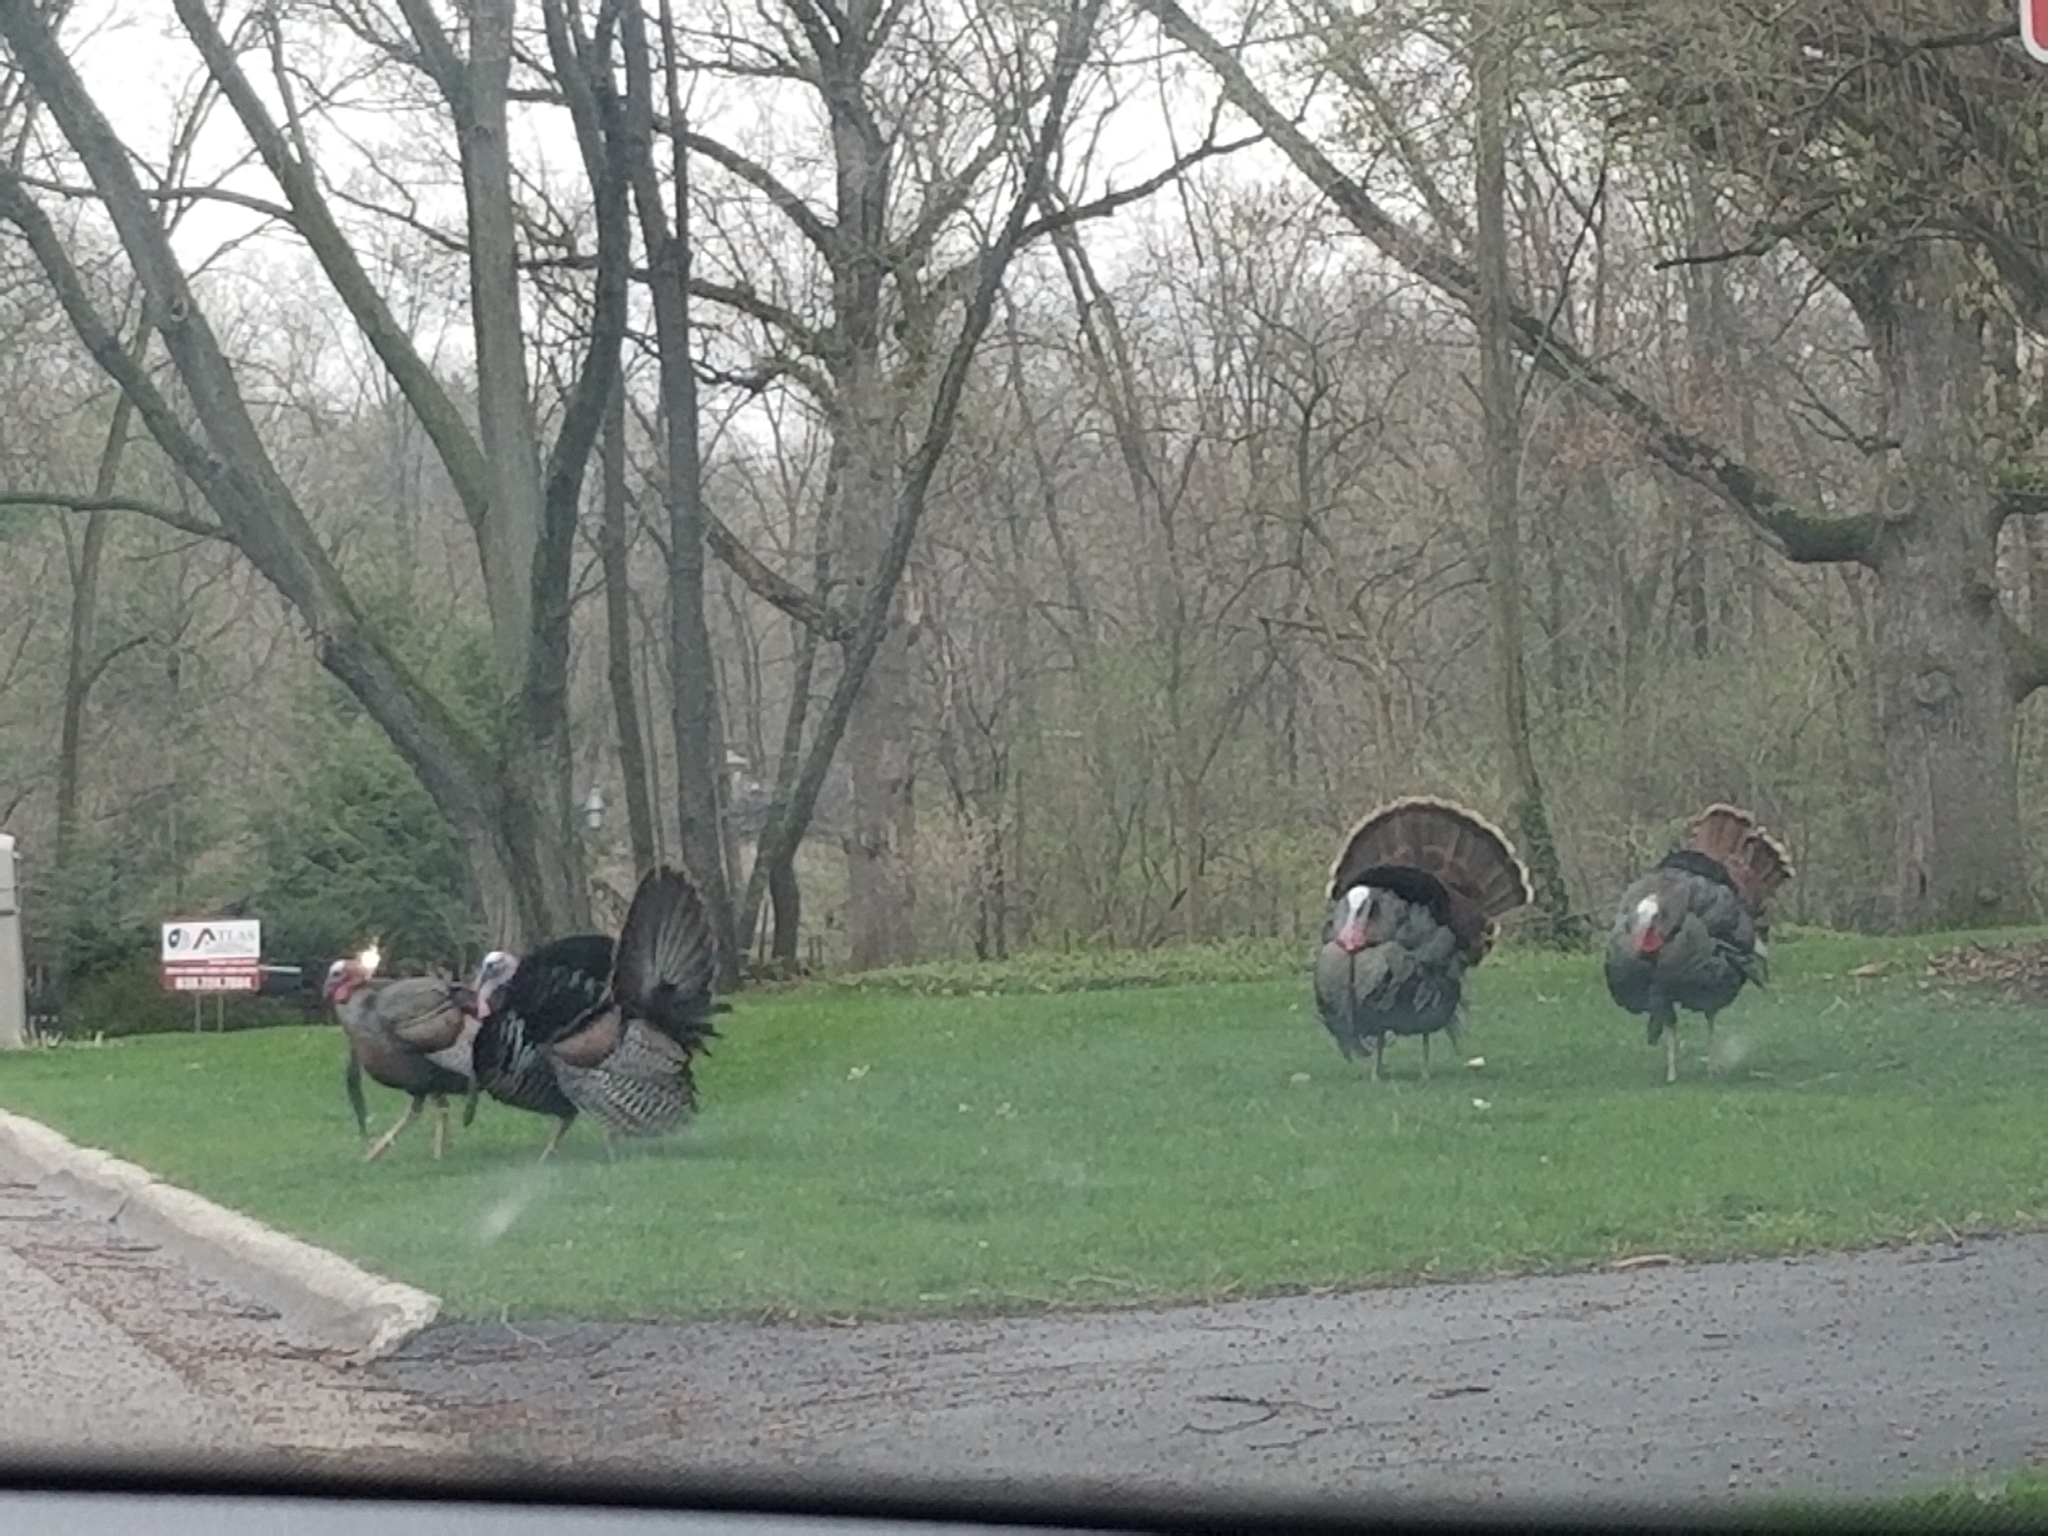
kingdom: Animalia
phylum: Chordata
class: Aves
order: Galliformes
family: Phasianidae
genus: Meleagris
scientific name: Meleagris gallopavo
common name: Wild turkey
